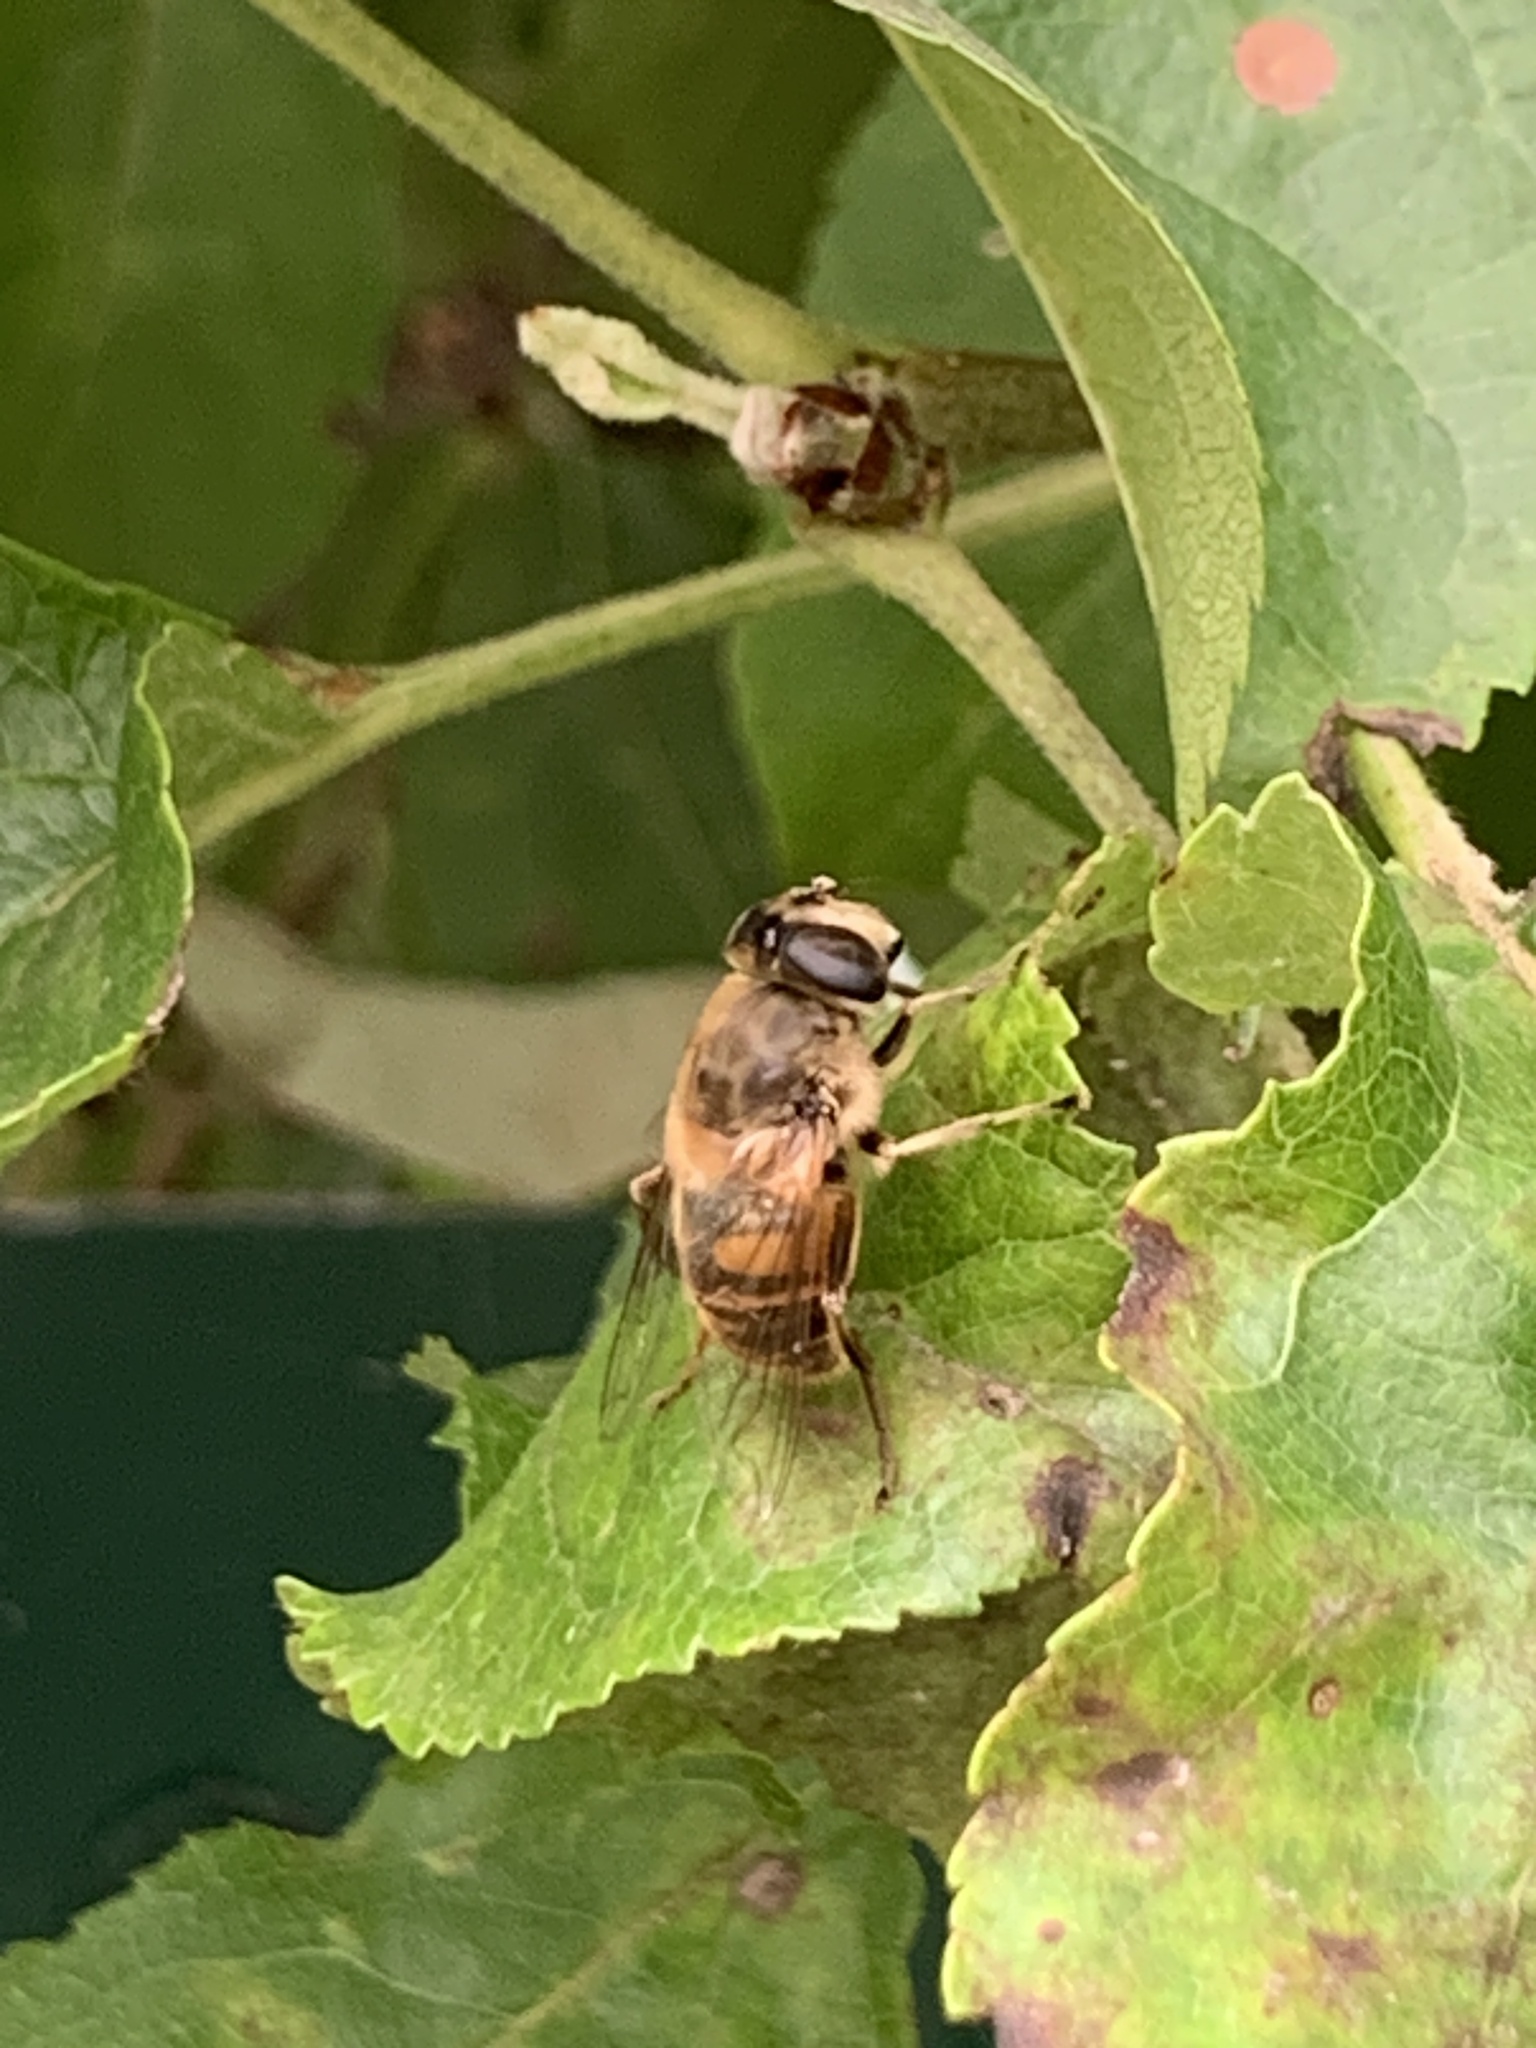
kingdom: Animalia
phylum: Arthropoda
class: Insecta
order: Diptera
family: Syrphidae
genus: Eristalis
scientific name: Eristalis tenax
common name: Drone fly
